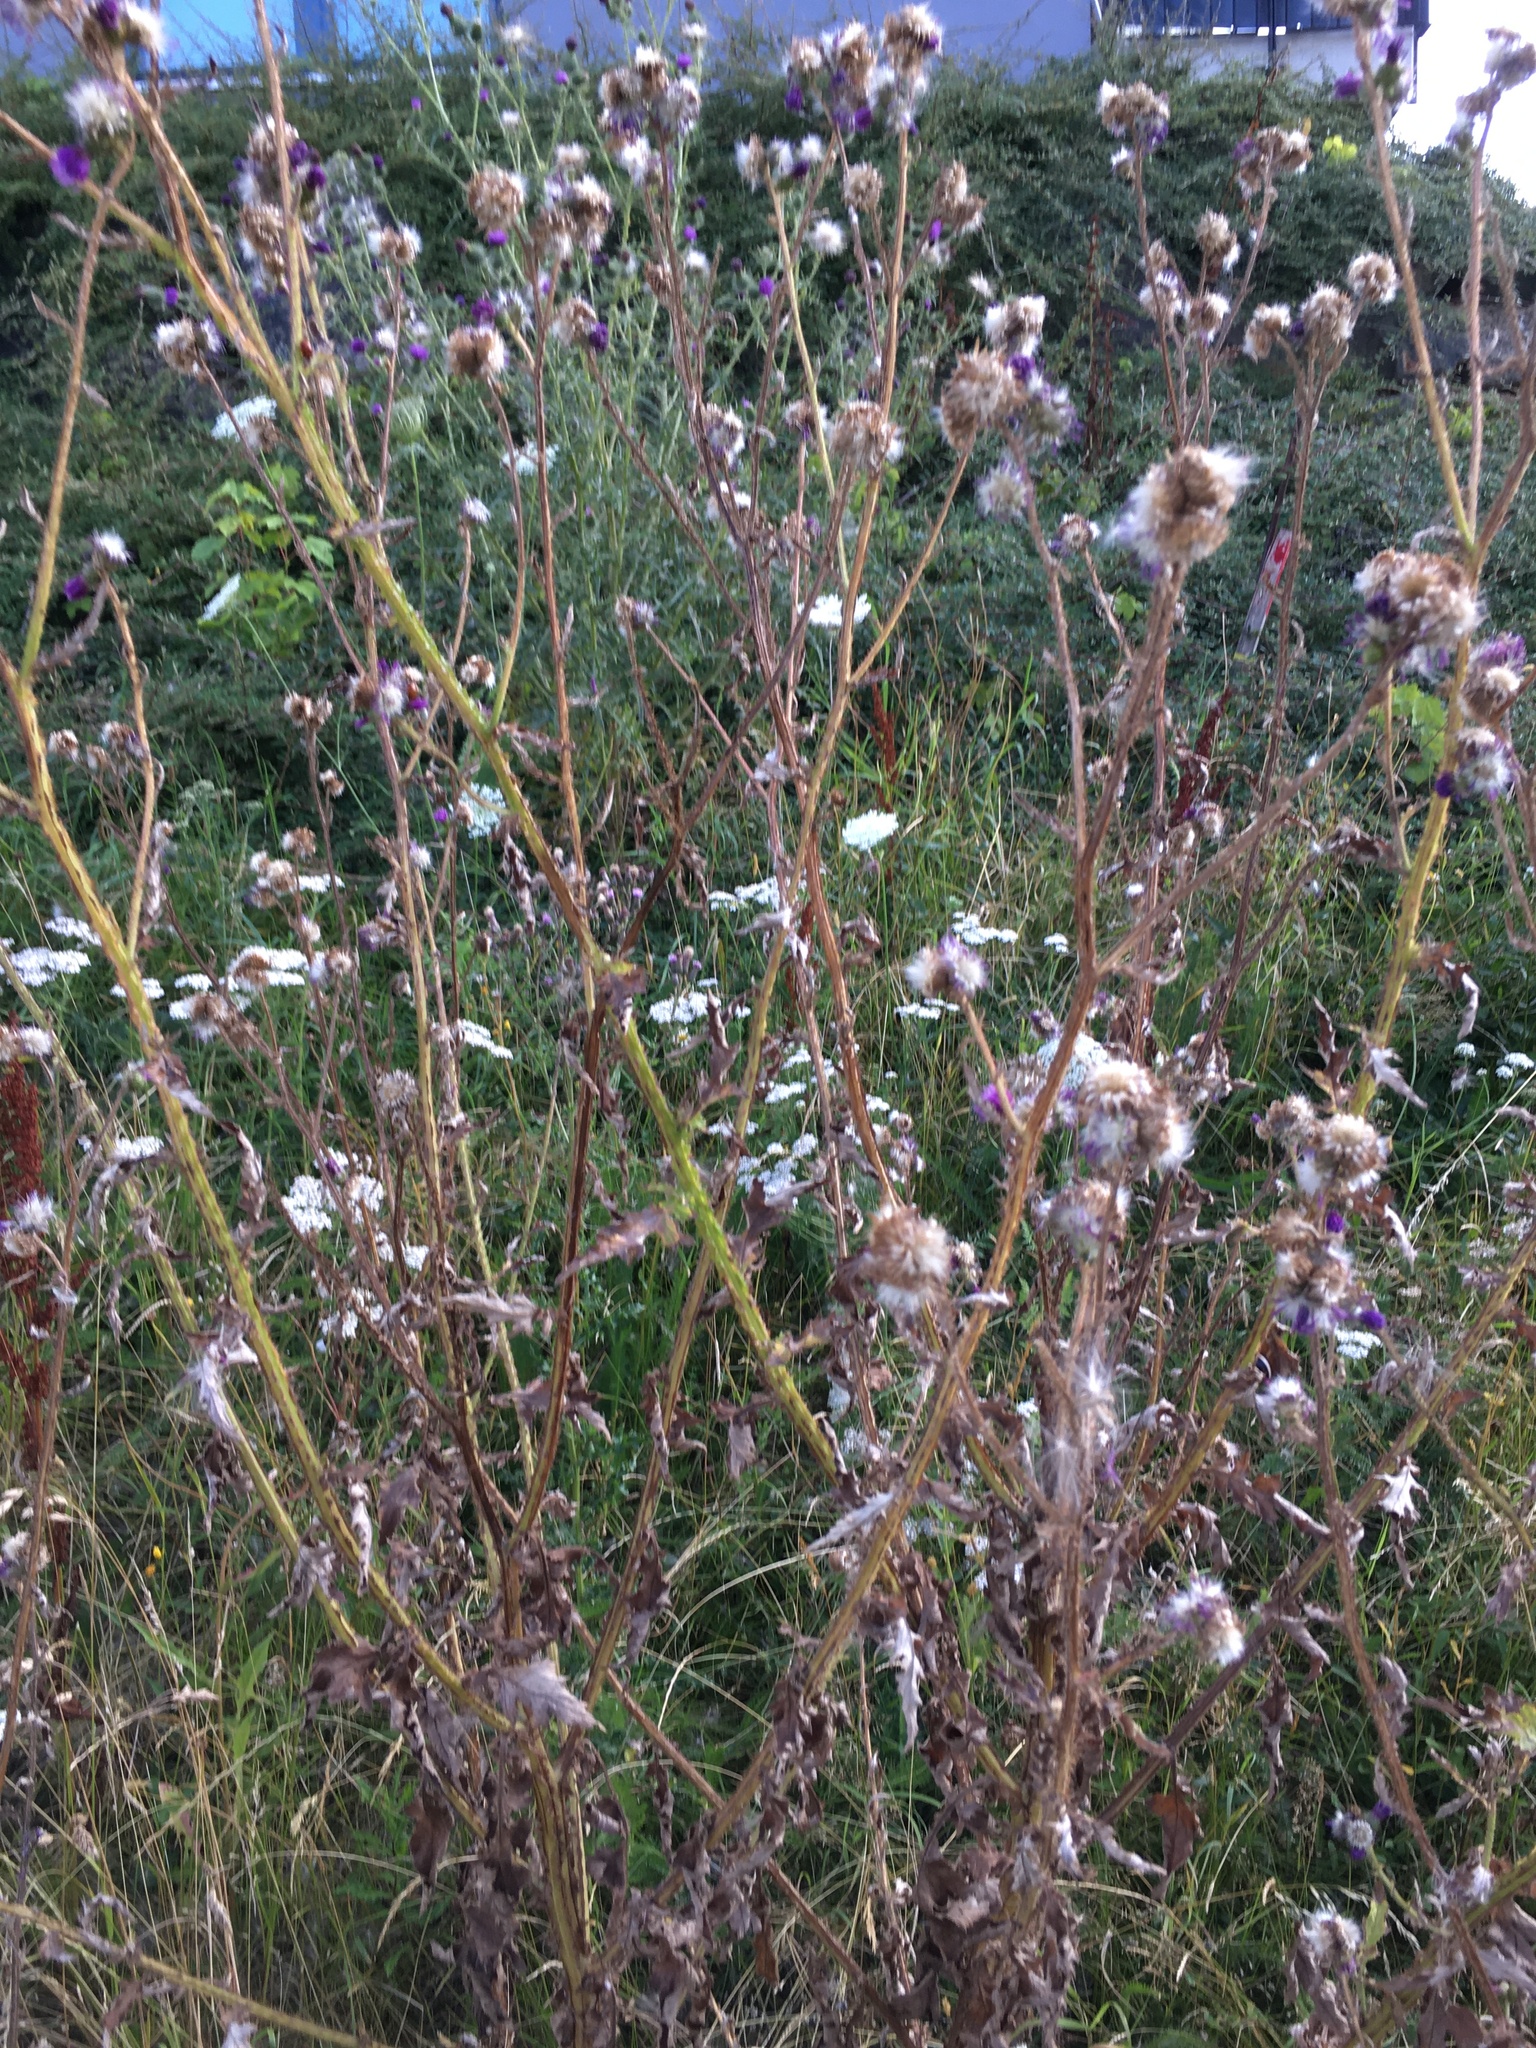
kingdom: Plantae
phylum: Tracheophyta
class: Magnoliopsida
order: Asterales
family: Asteraceae
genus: Cirsium
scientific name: Cirsium arvense
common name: Creeping thistle
